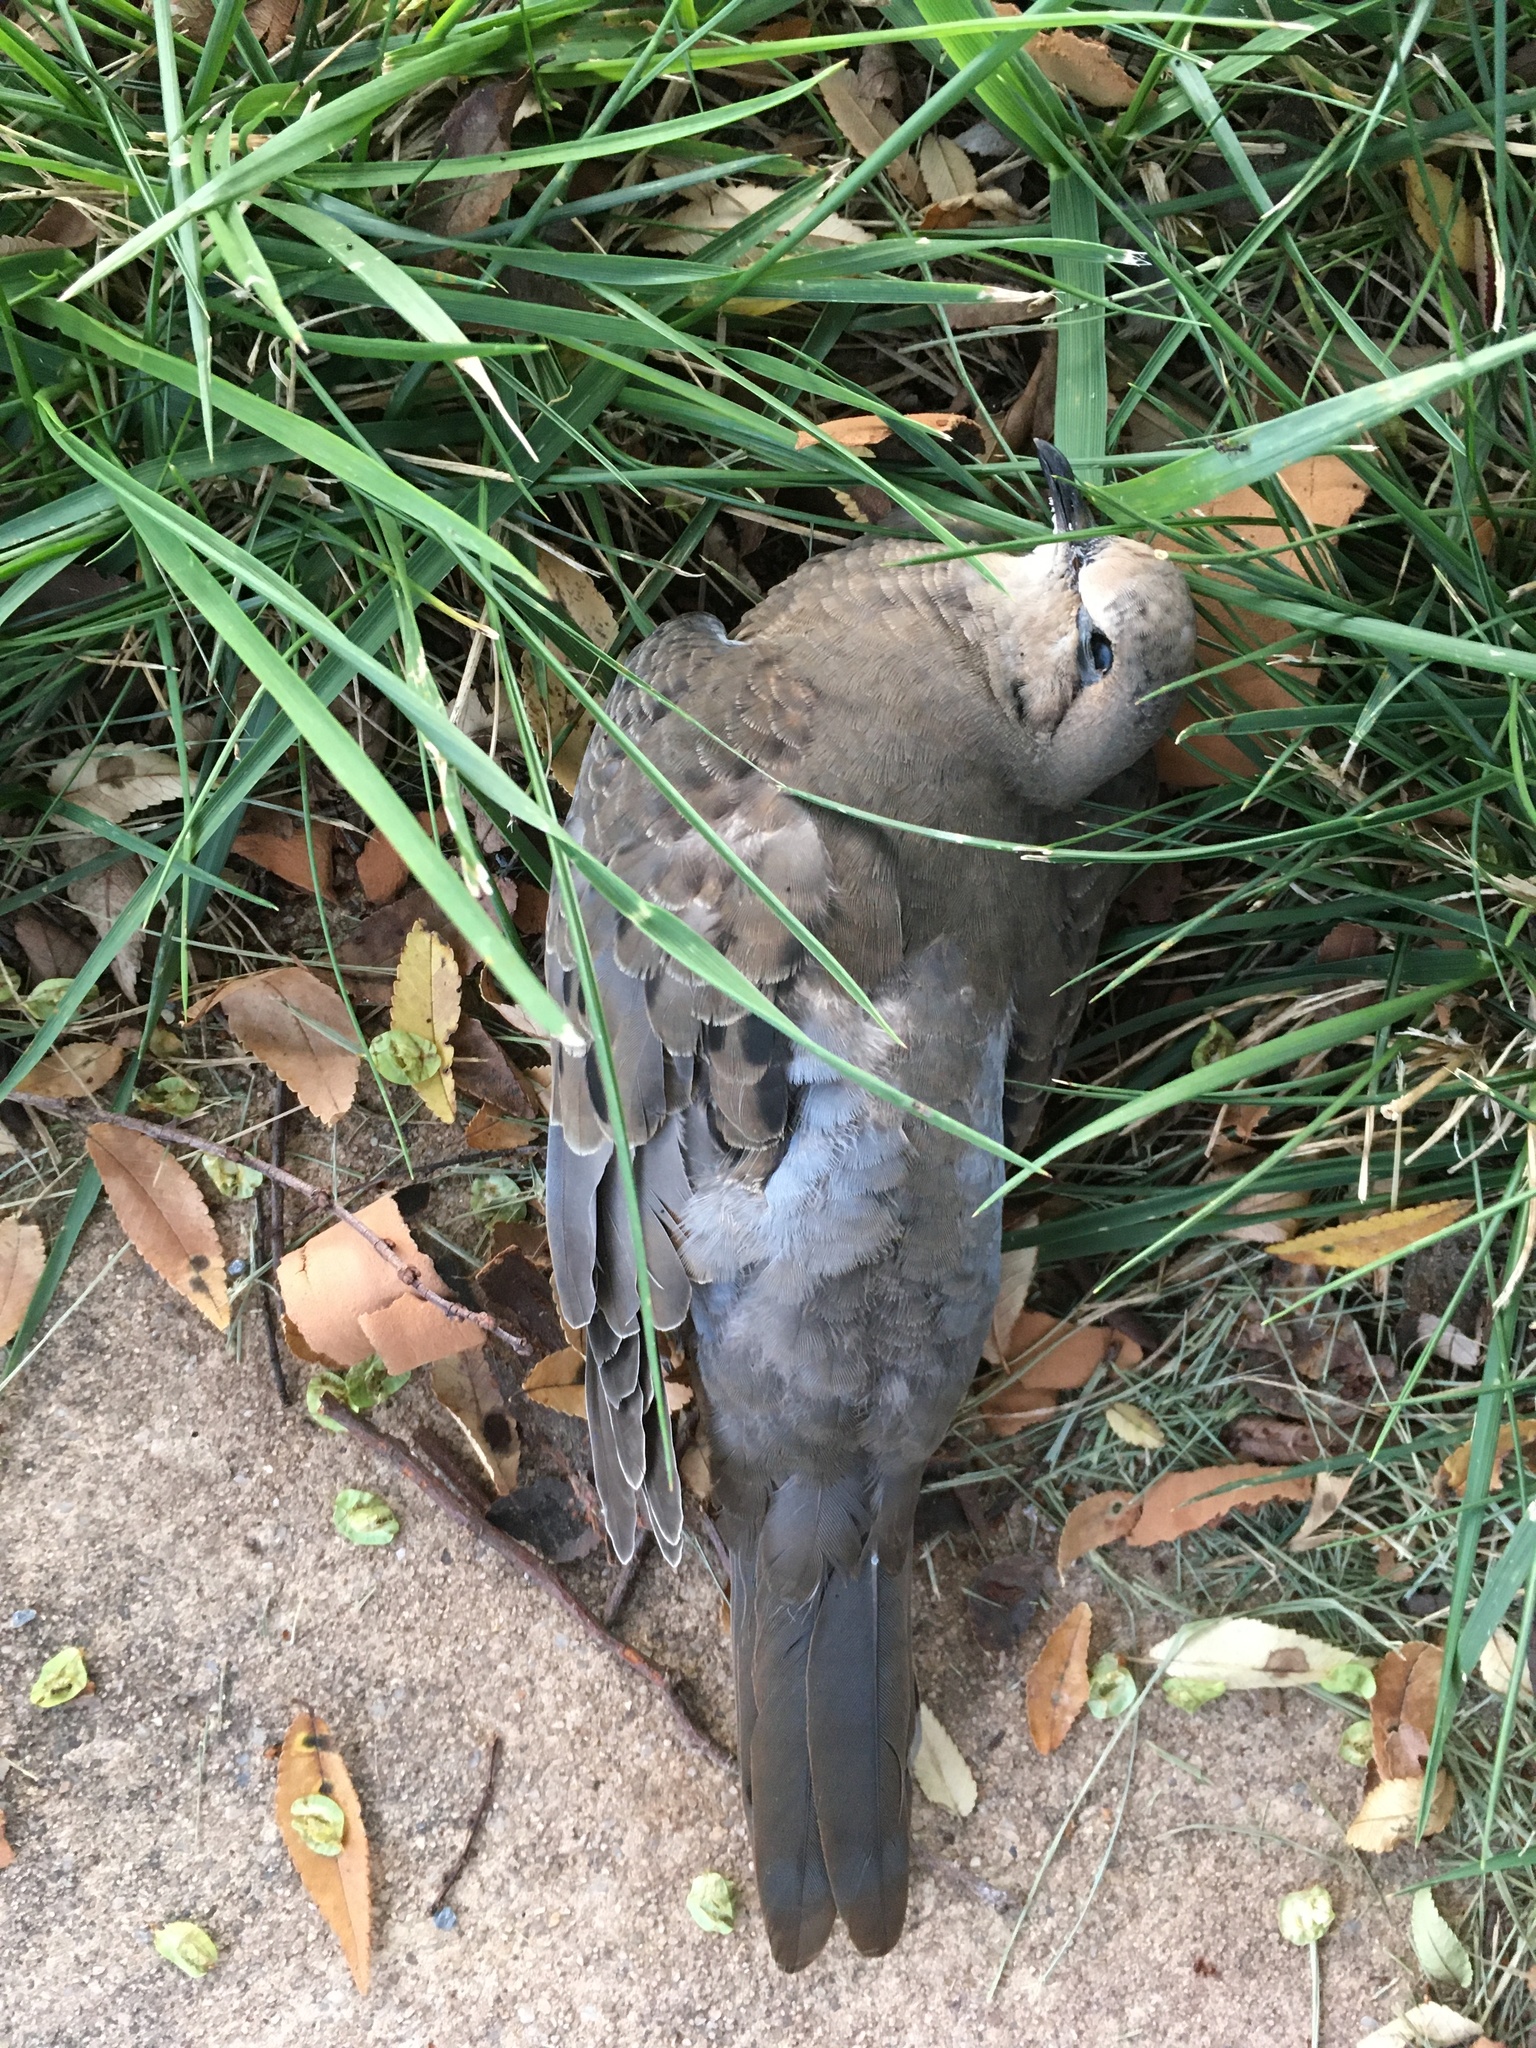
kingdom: Animalia
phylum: Chordata
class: Aves
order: Columbiformes
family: Columbidae
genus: Zenaida
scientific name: Zenaida macroura
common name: Mourning dove
